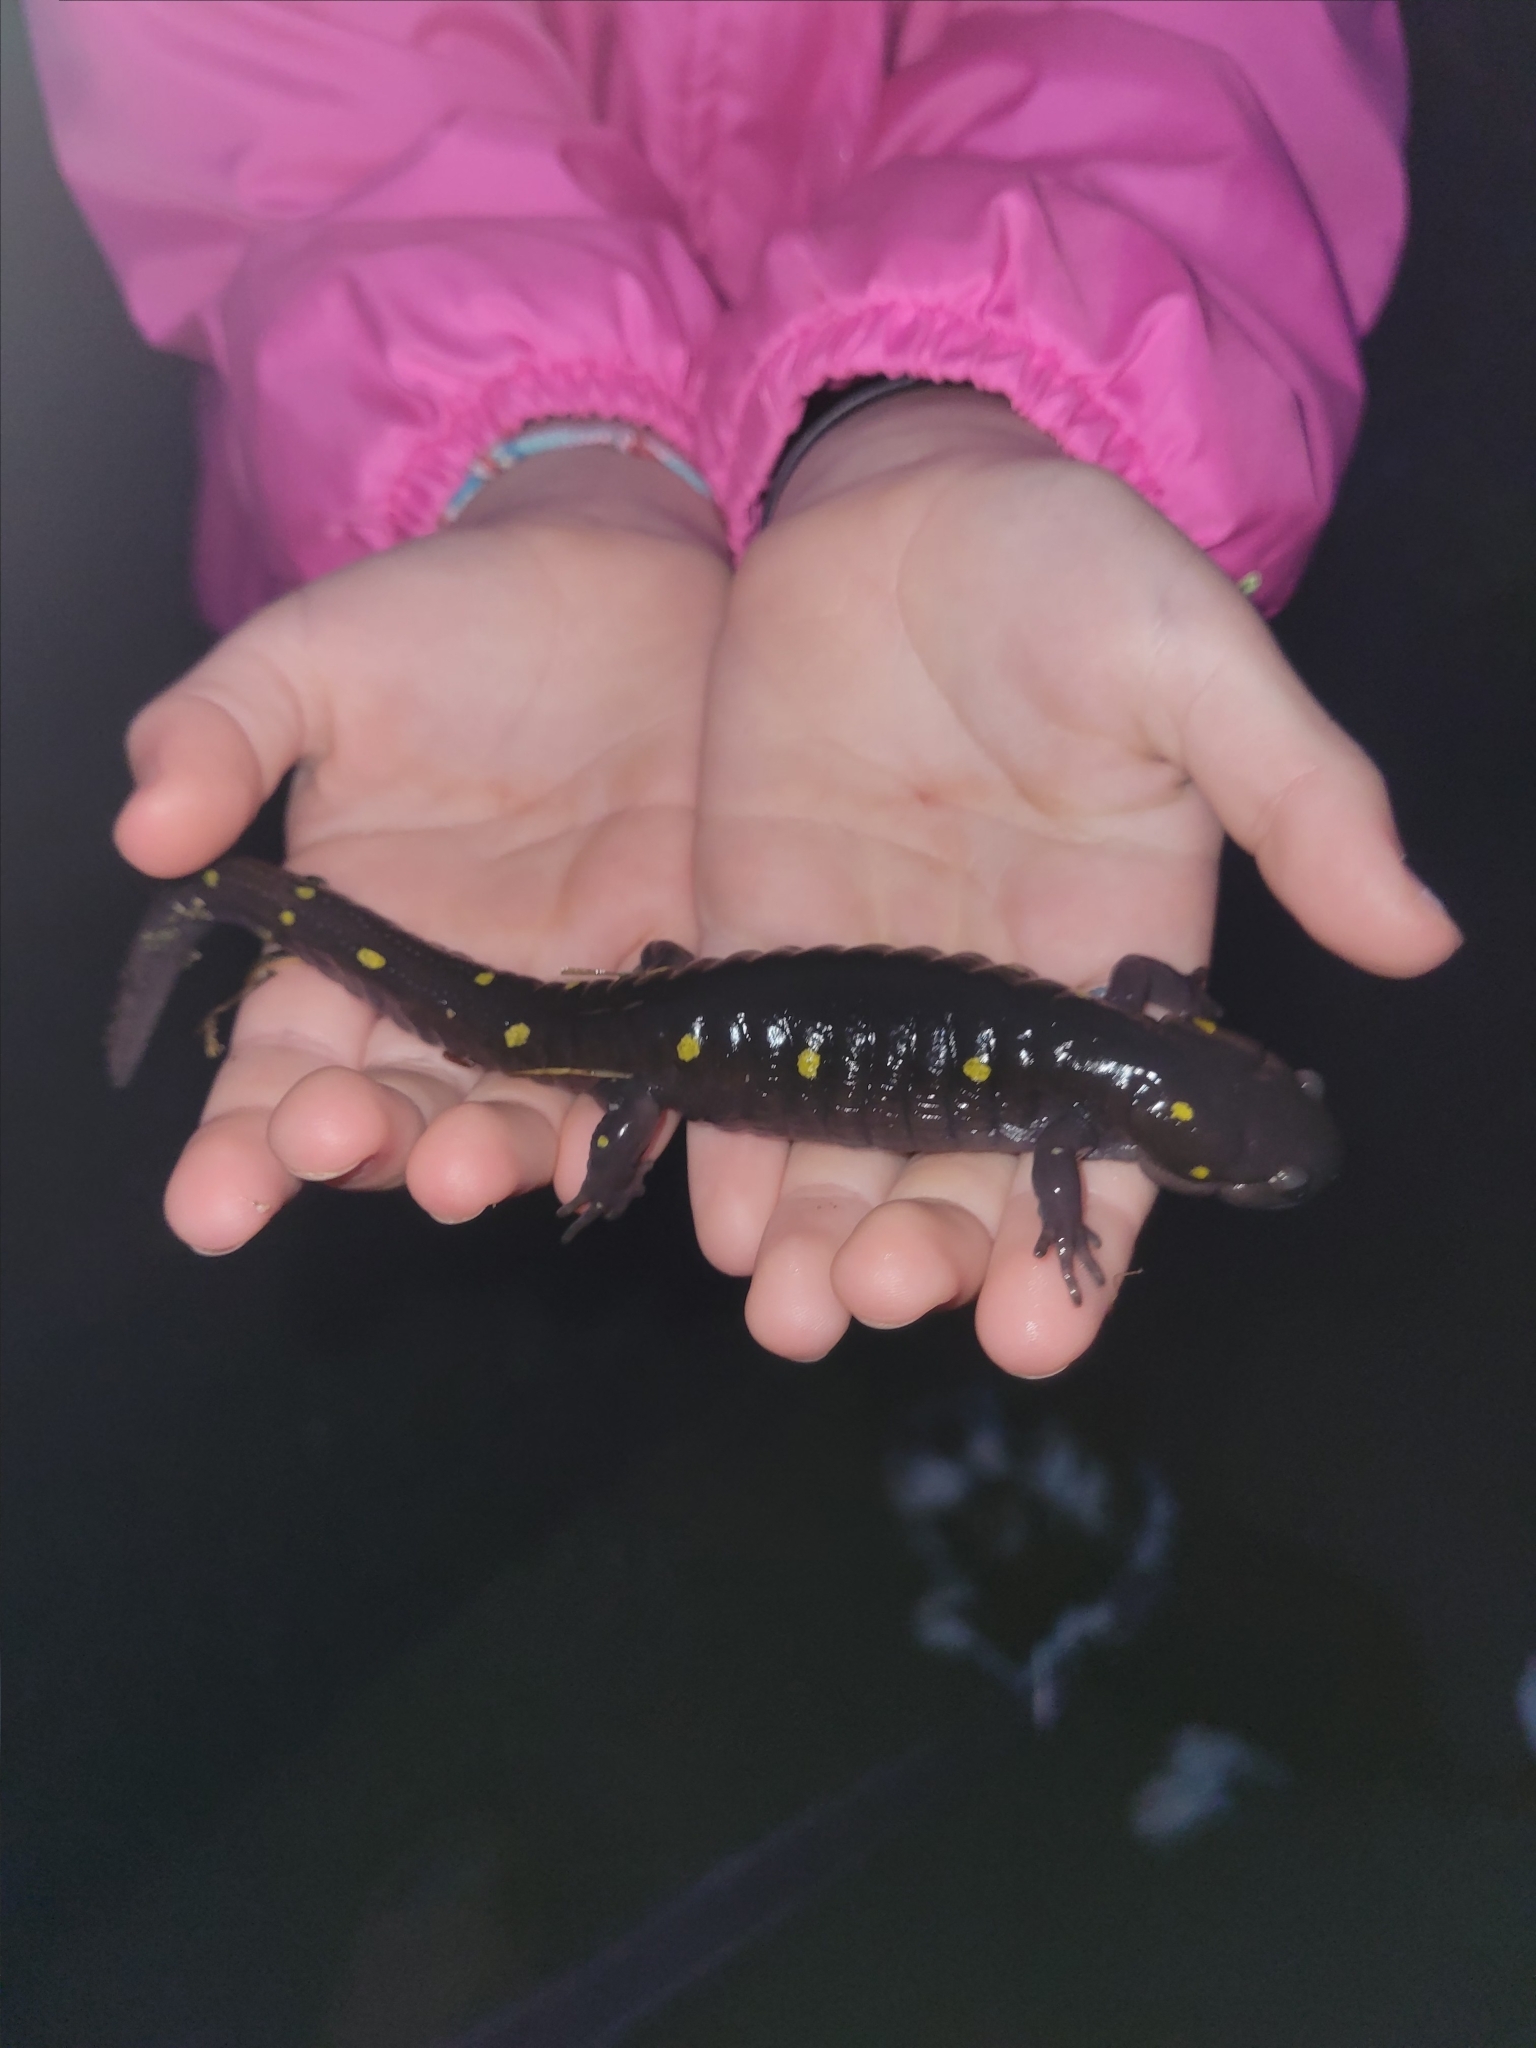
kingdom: Animalia
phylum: Chordata
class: Amphibia
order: Caudata
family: Ambystomatidae
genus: Ambystoma
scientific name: Ambystoma maculatum
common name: Spotted salamander
